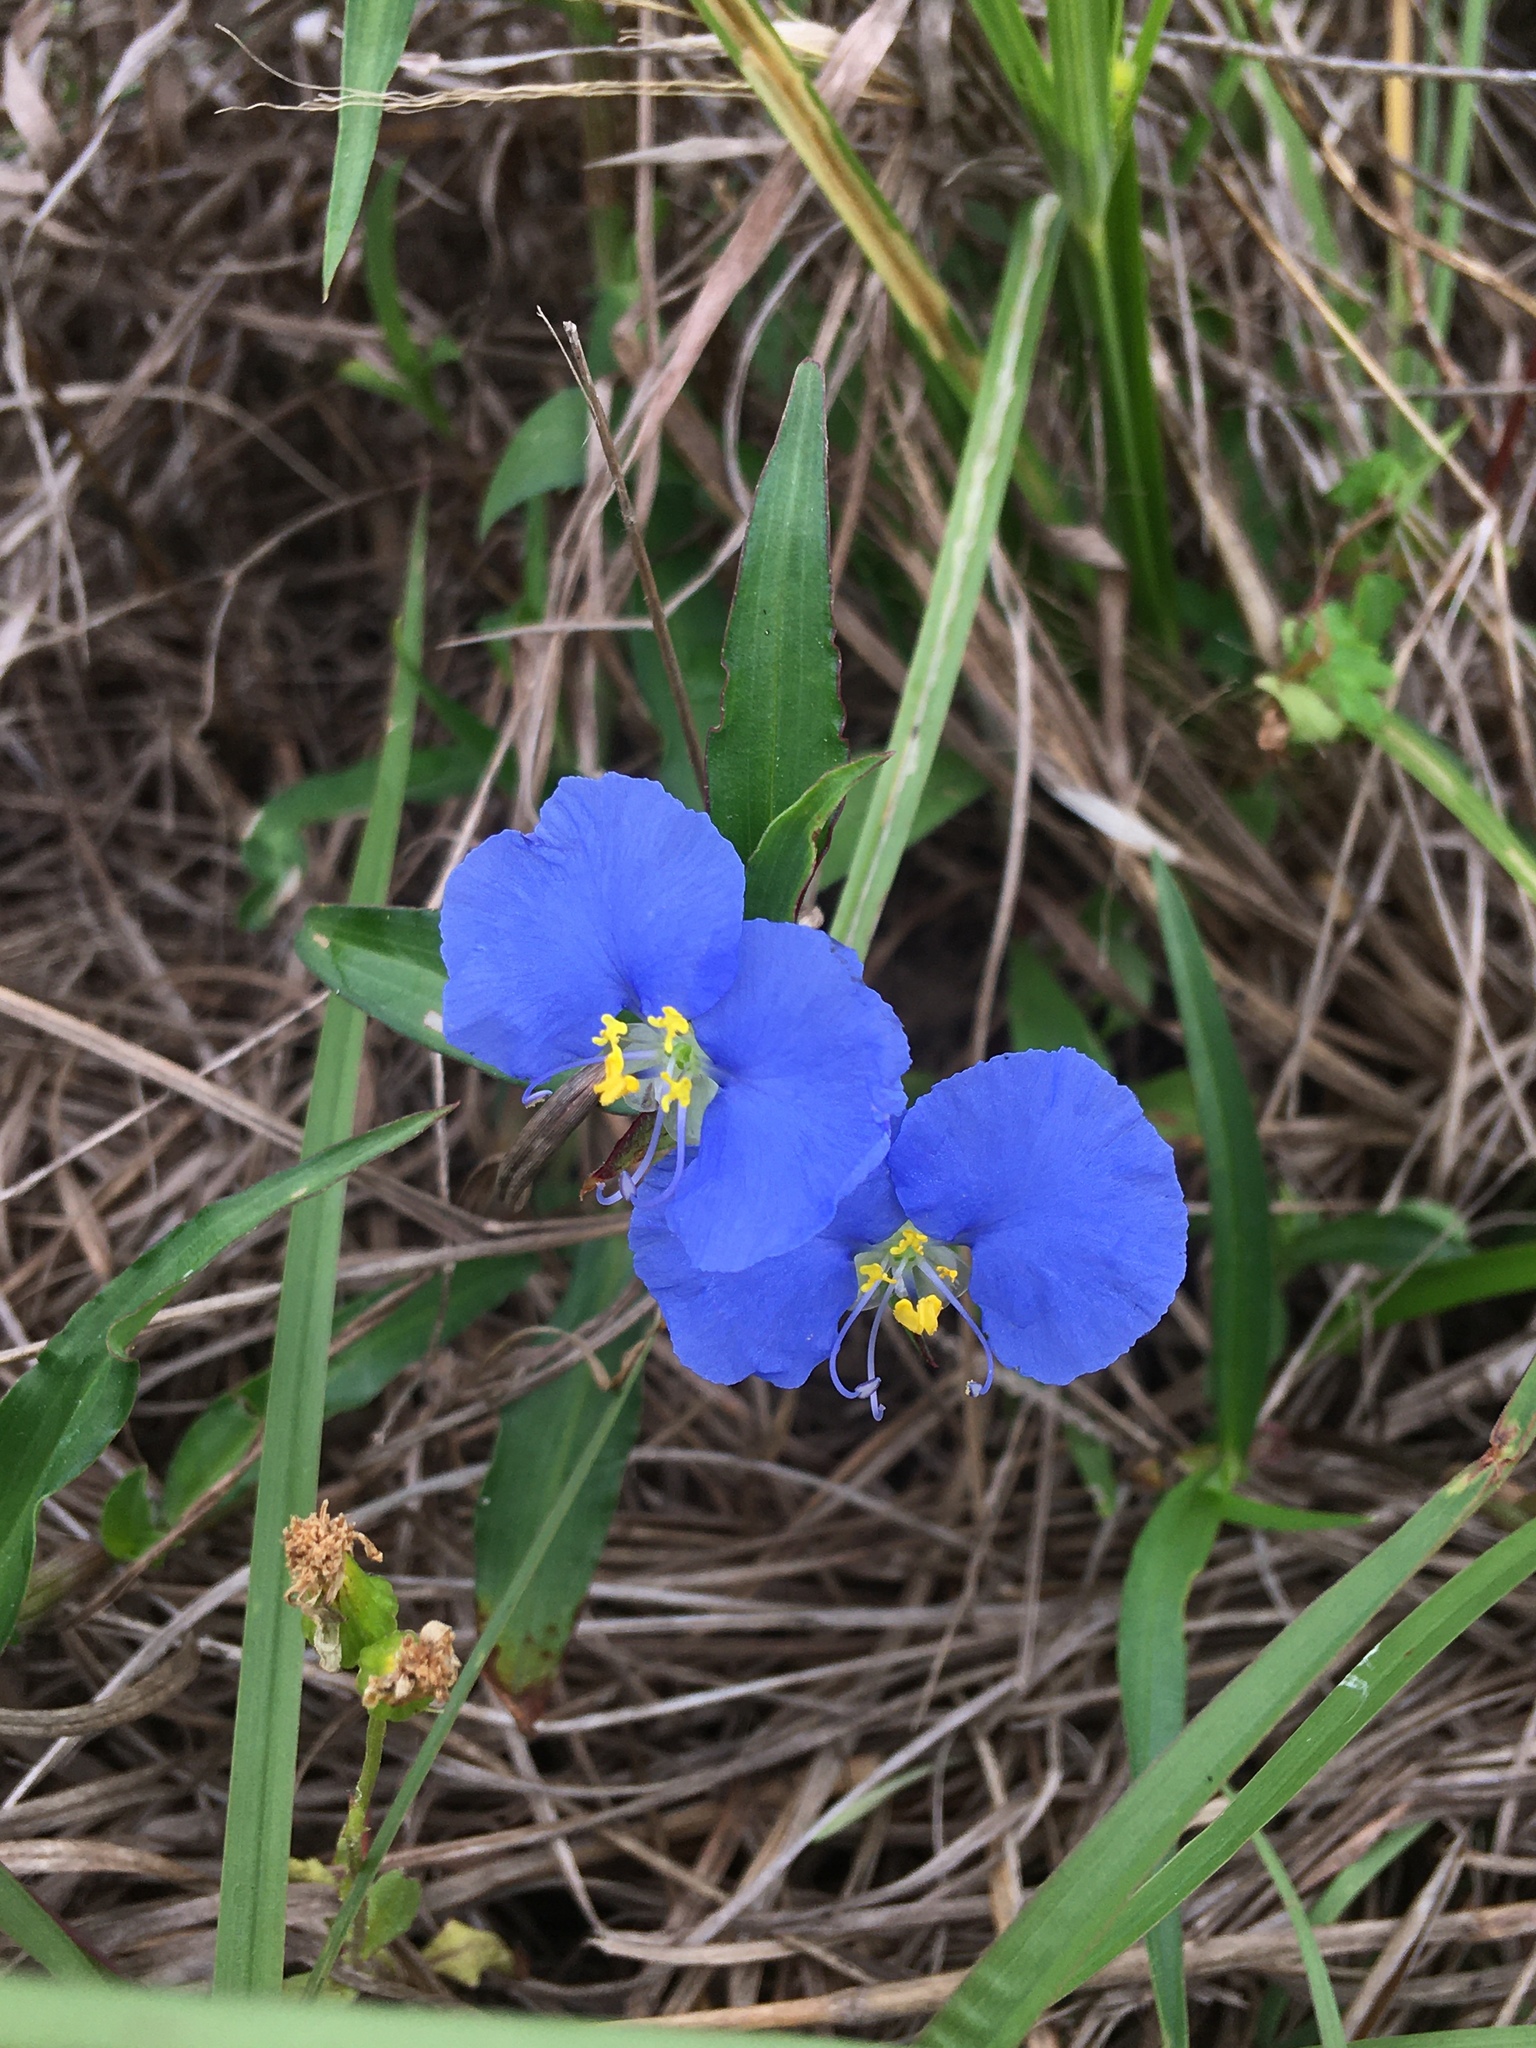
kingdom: Plantae
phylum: Tracheophyta
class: Liliopsida
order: Commelinales
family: Commelinaceae
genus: Commelina
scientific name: Commelina erecta
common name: Blousel blommetjie
